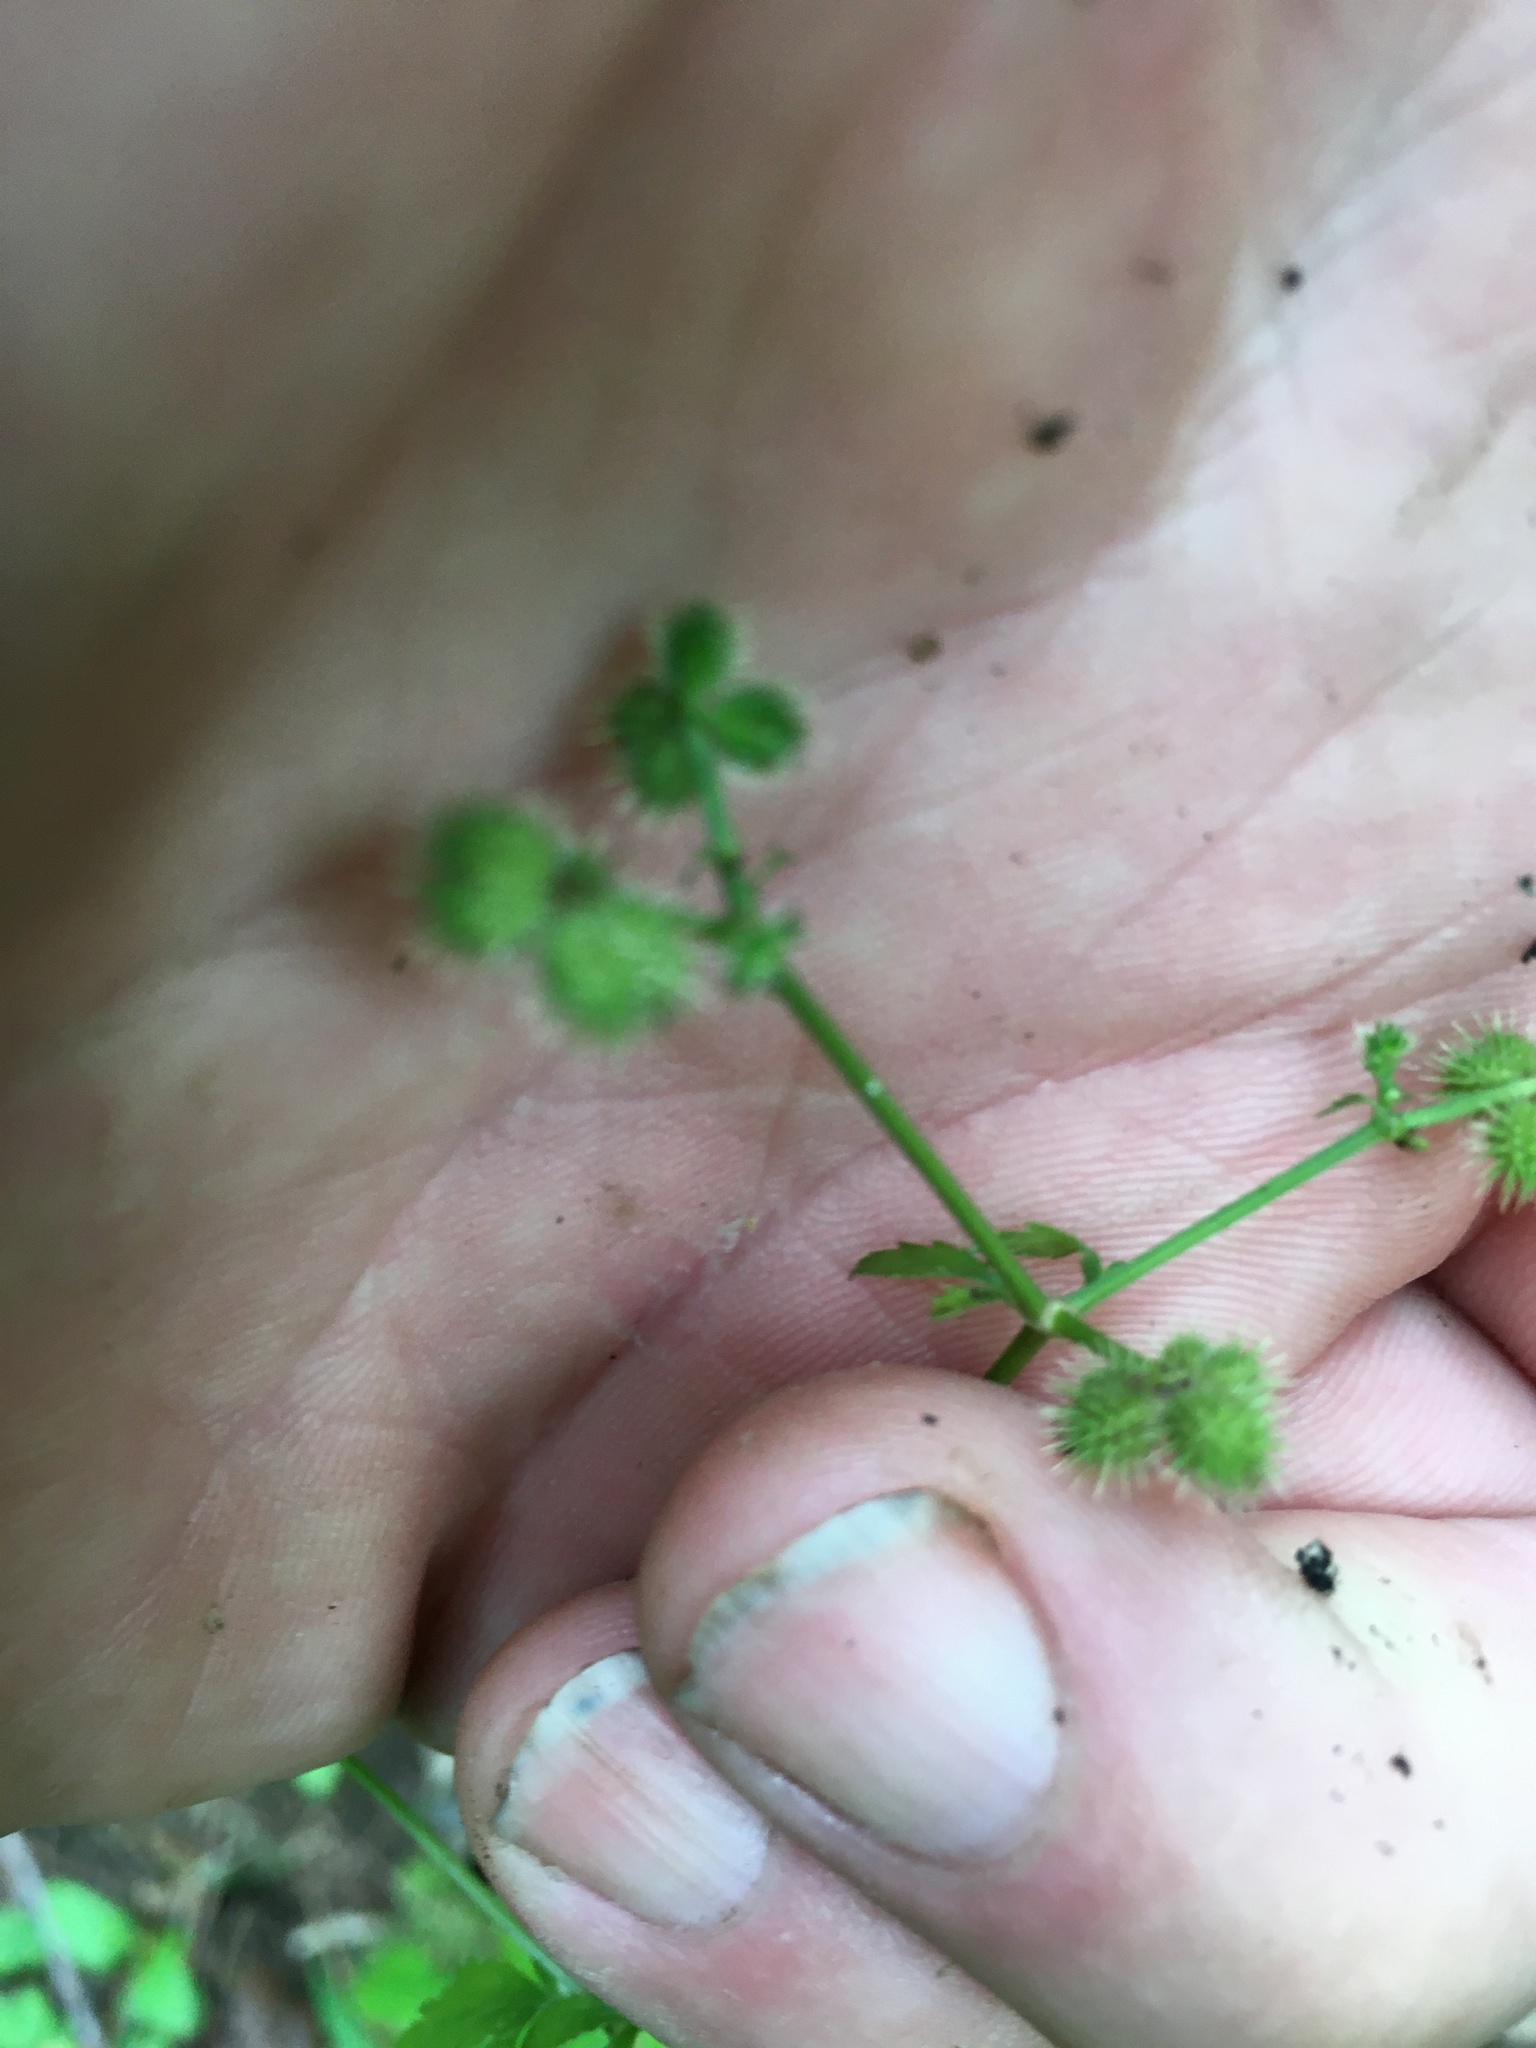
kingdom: Plantae
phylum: Tracheophyta
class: Magnoliopsida
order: Apiales
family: Apiaceae
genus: Sanicula
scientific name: Sanicula canadensis
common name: Canada sanicle
